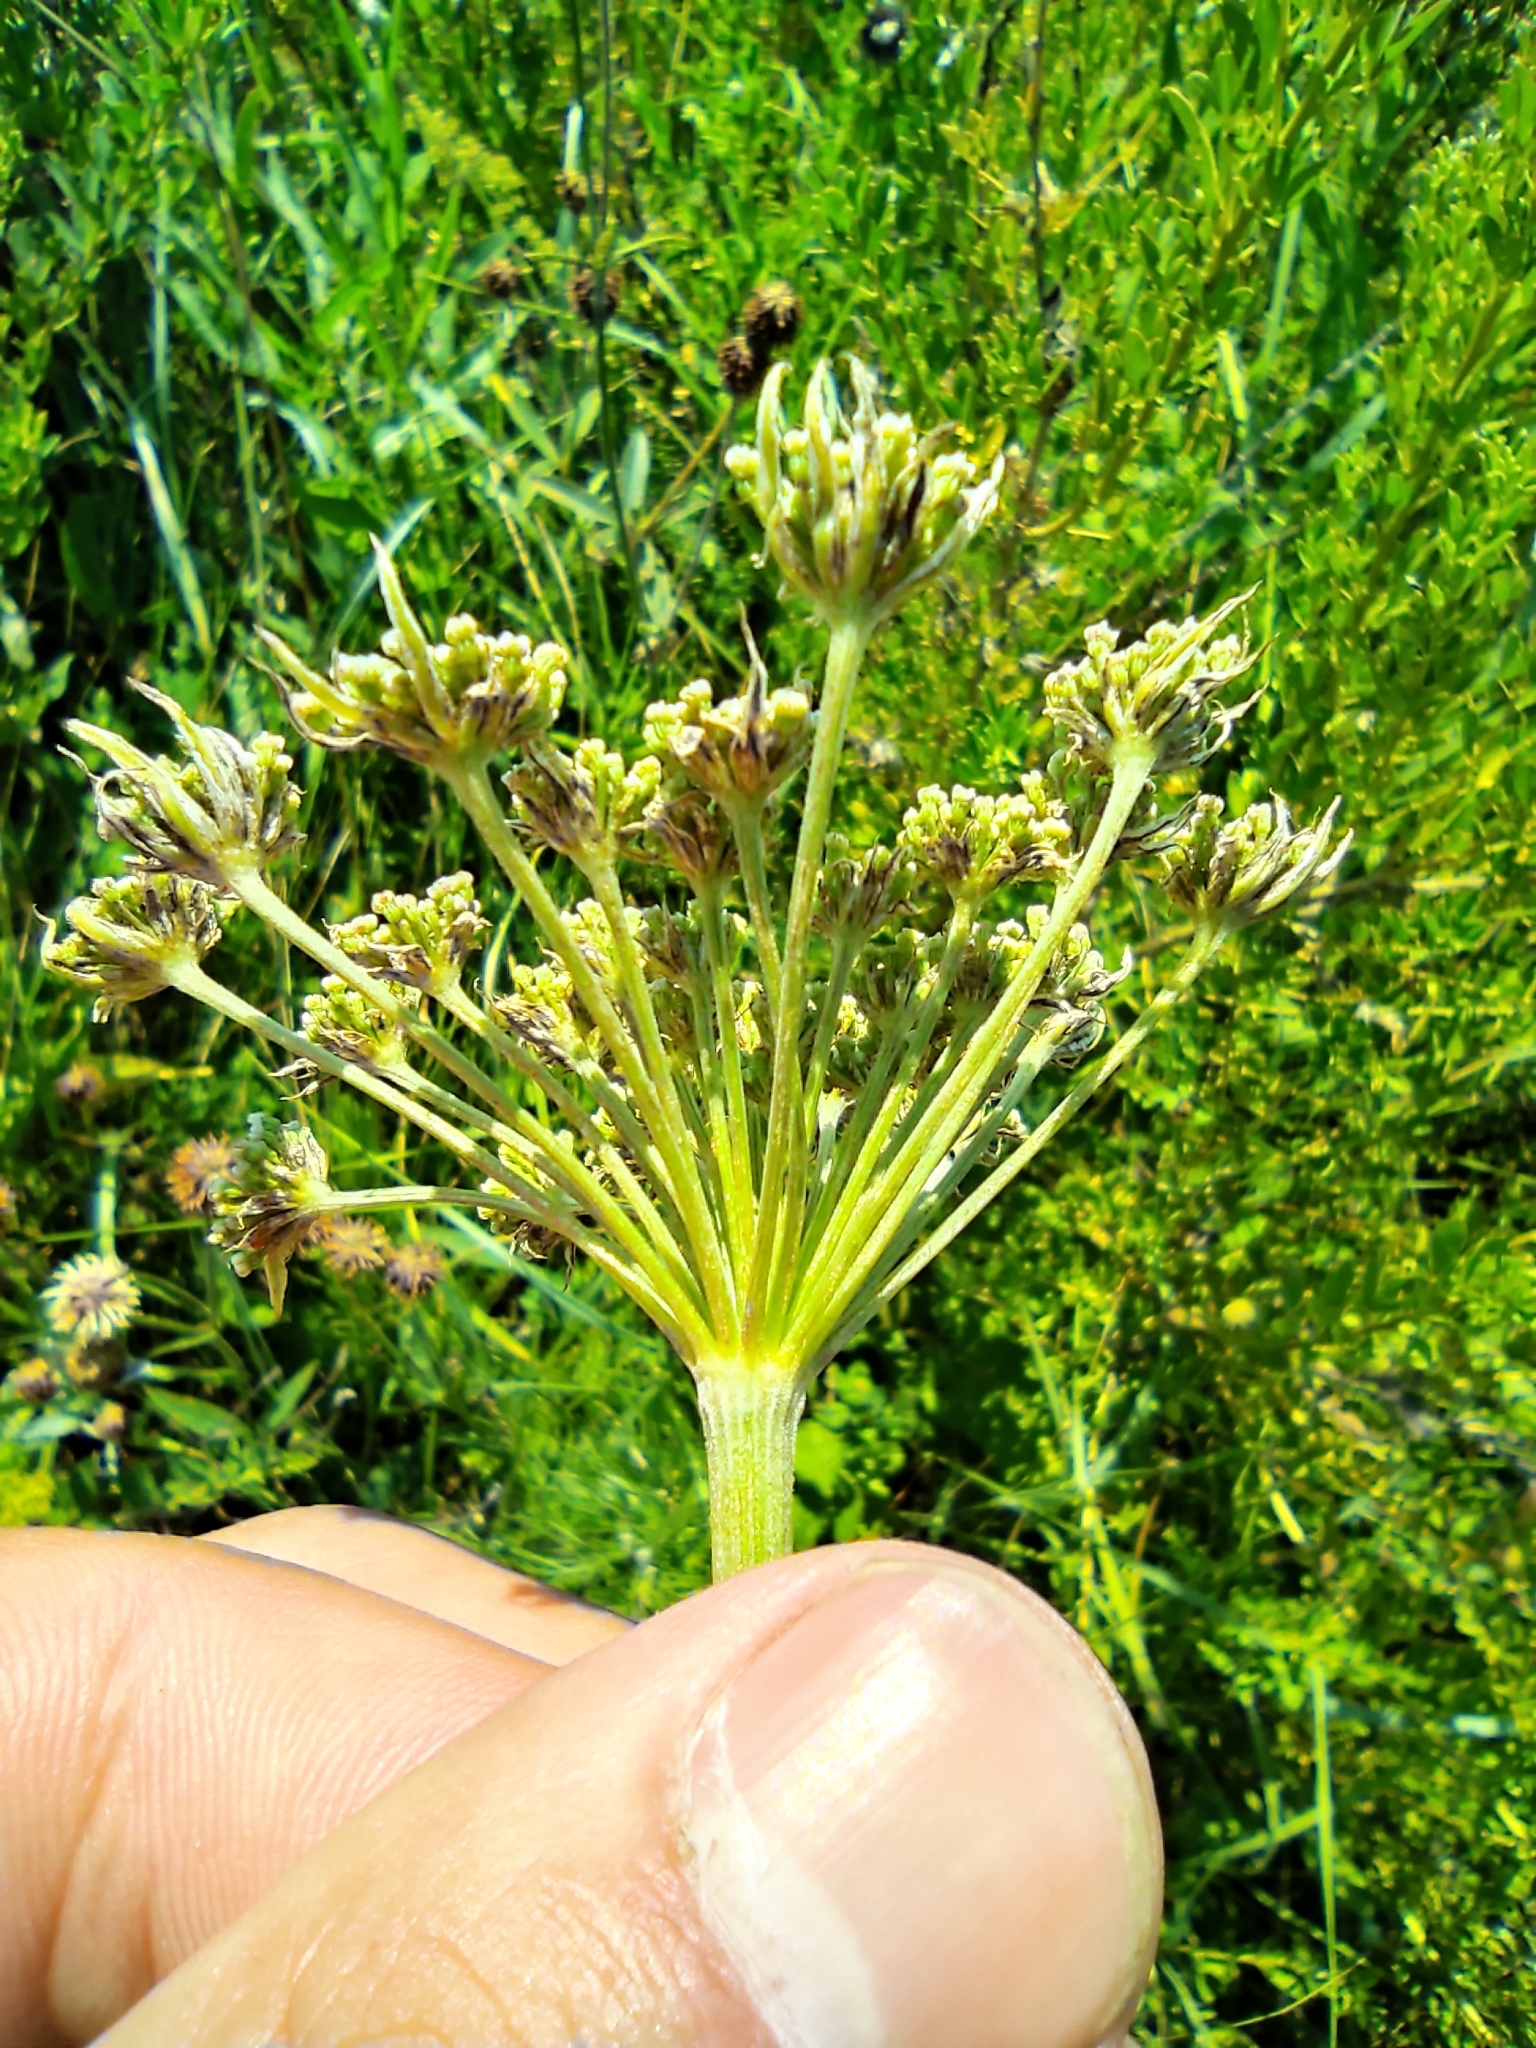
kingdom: Plantae
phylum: Tracheophyta
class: Magnoliopsida
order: Apiales
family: Apiaceae
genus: Seseli
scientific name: Seseli annuum
